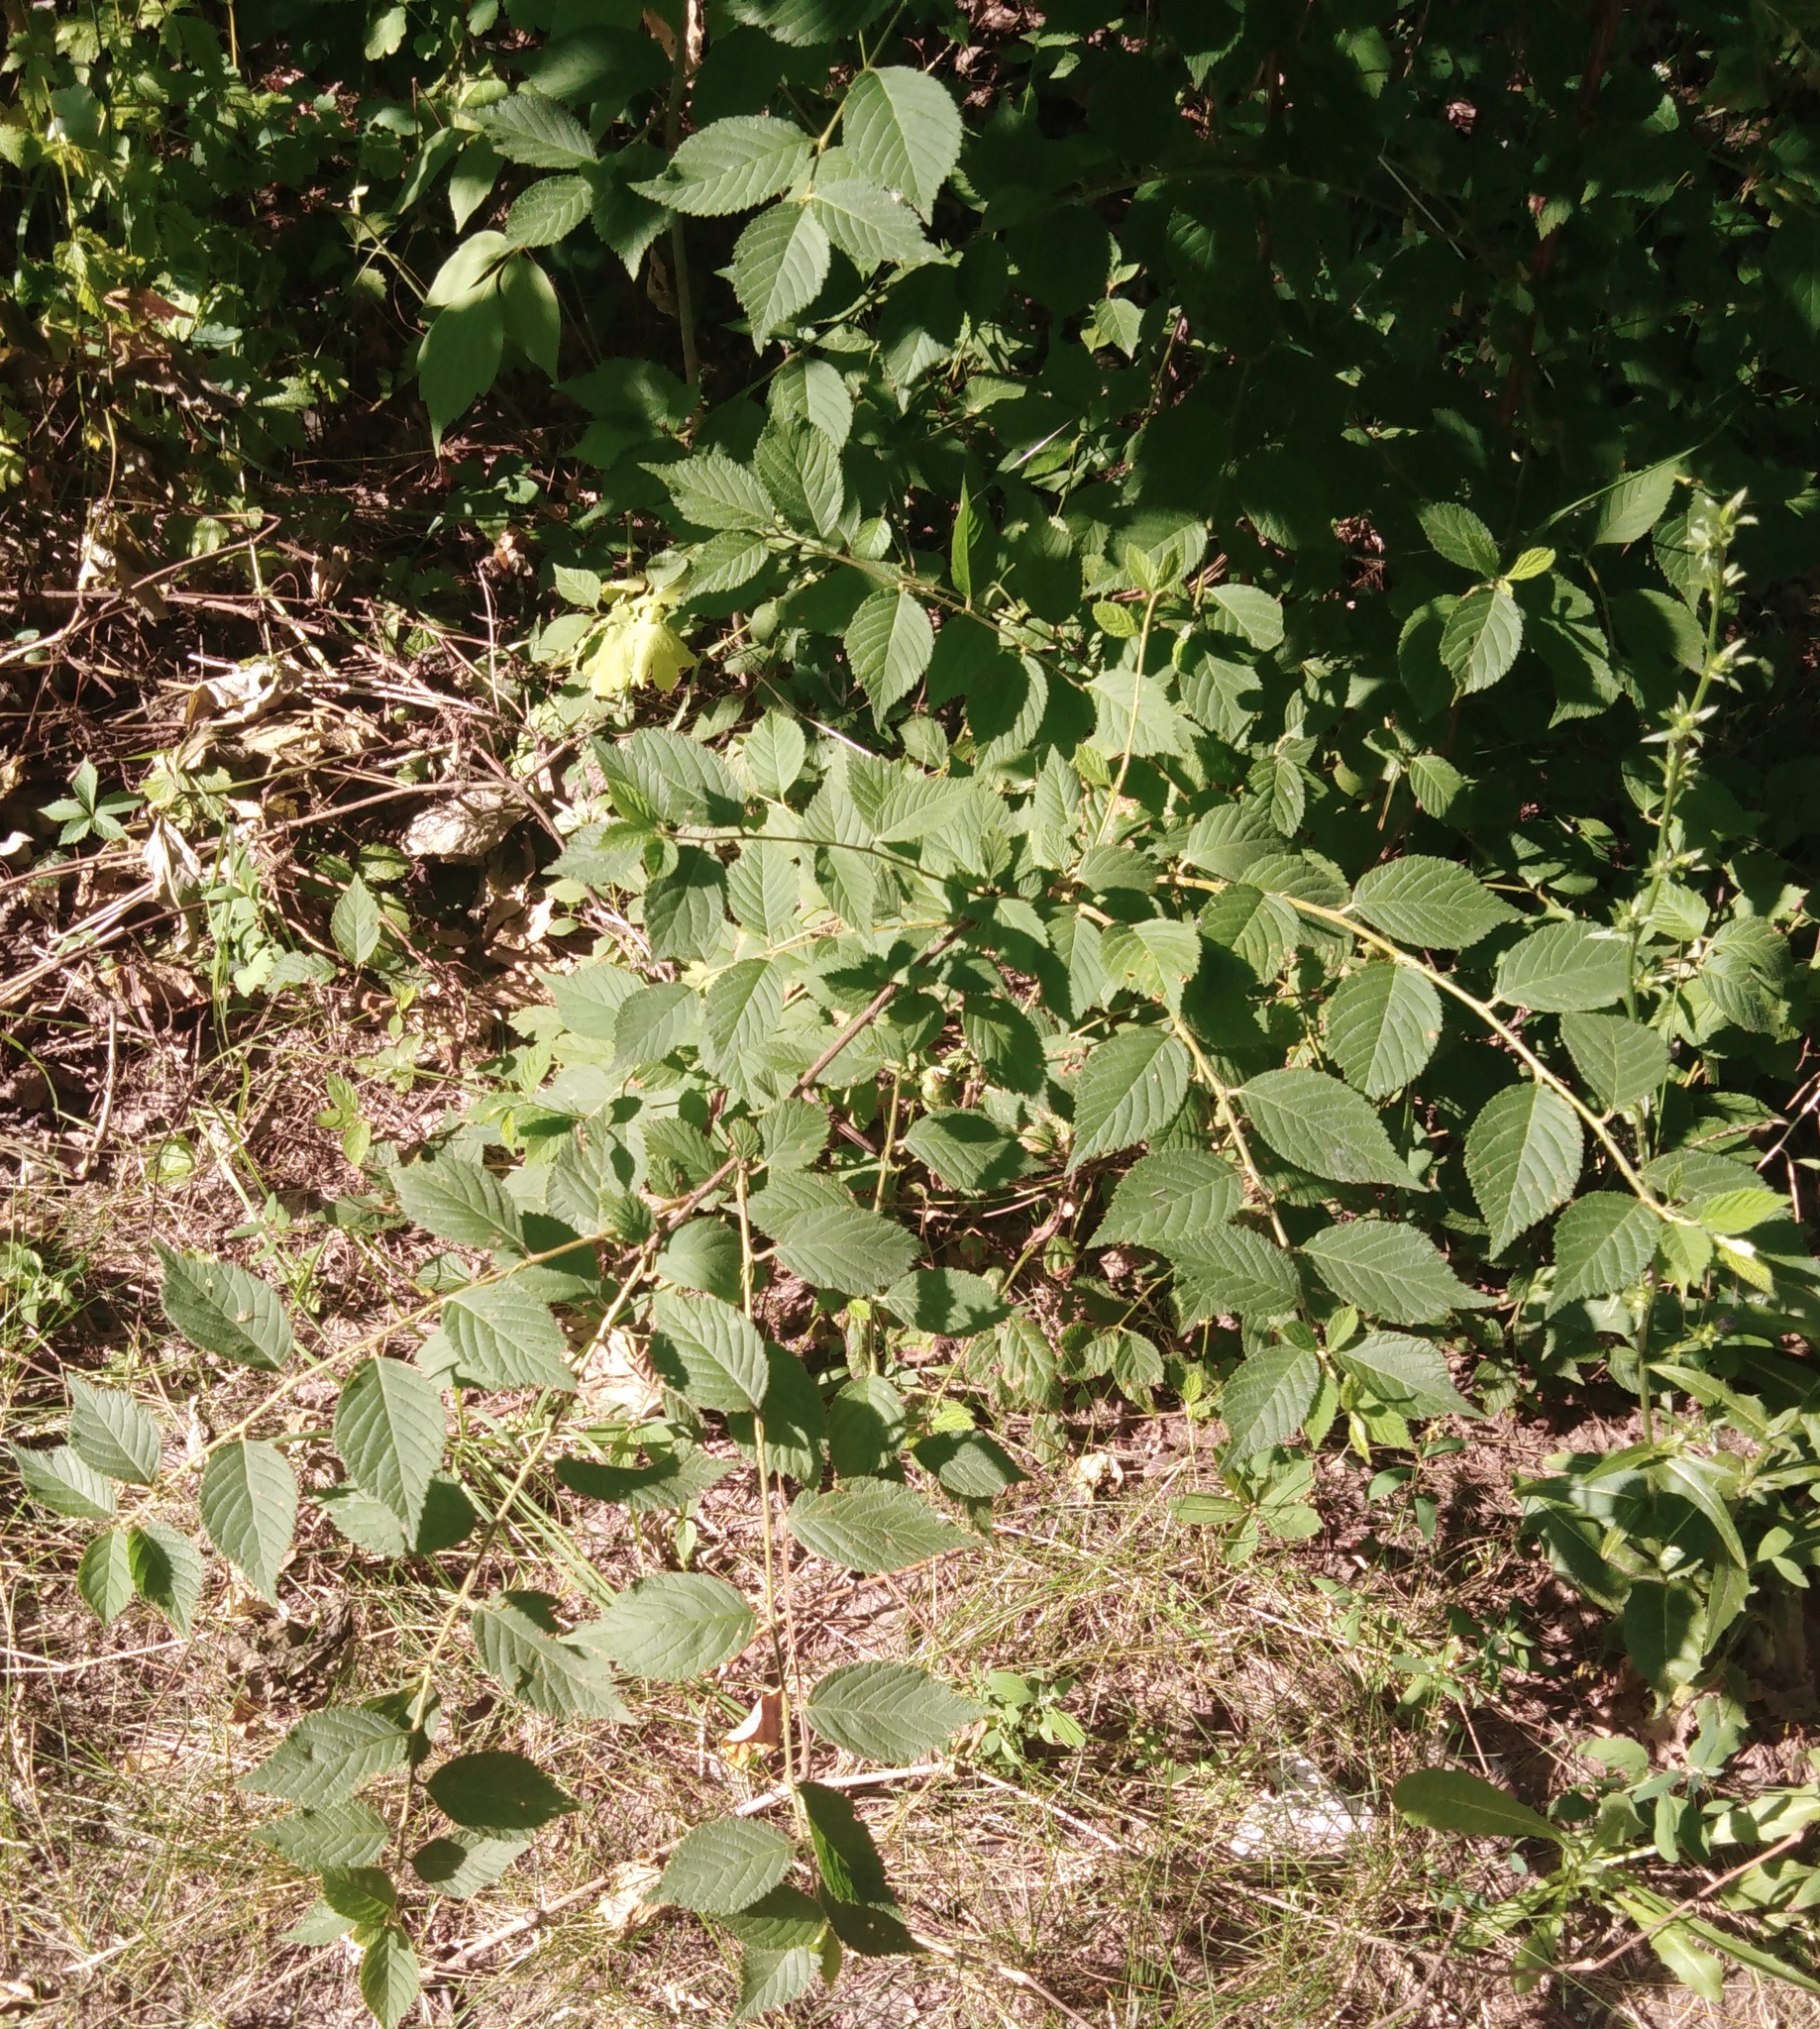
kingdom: Plantae
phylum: Tracheophyta
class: Magnoliopsida
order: Rosales
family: Rosaceae
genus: Prunus
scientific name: Prunus tomentosa
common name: Nanking cherry
